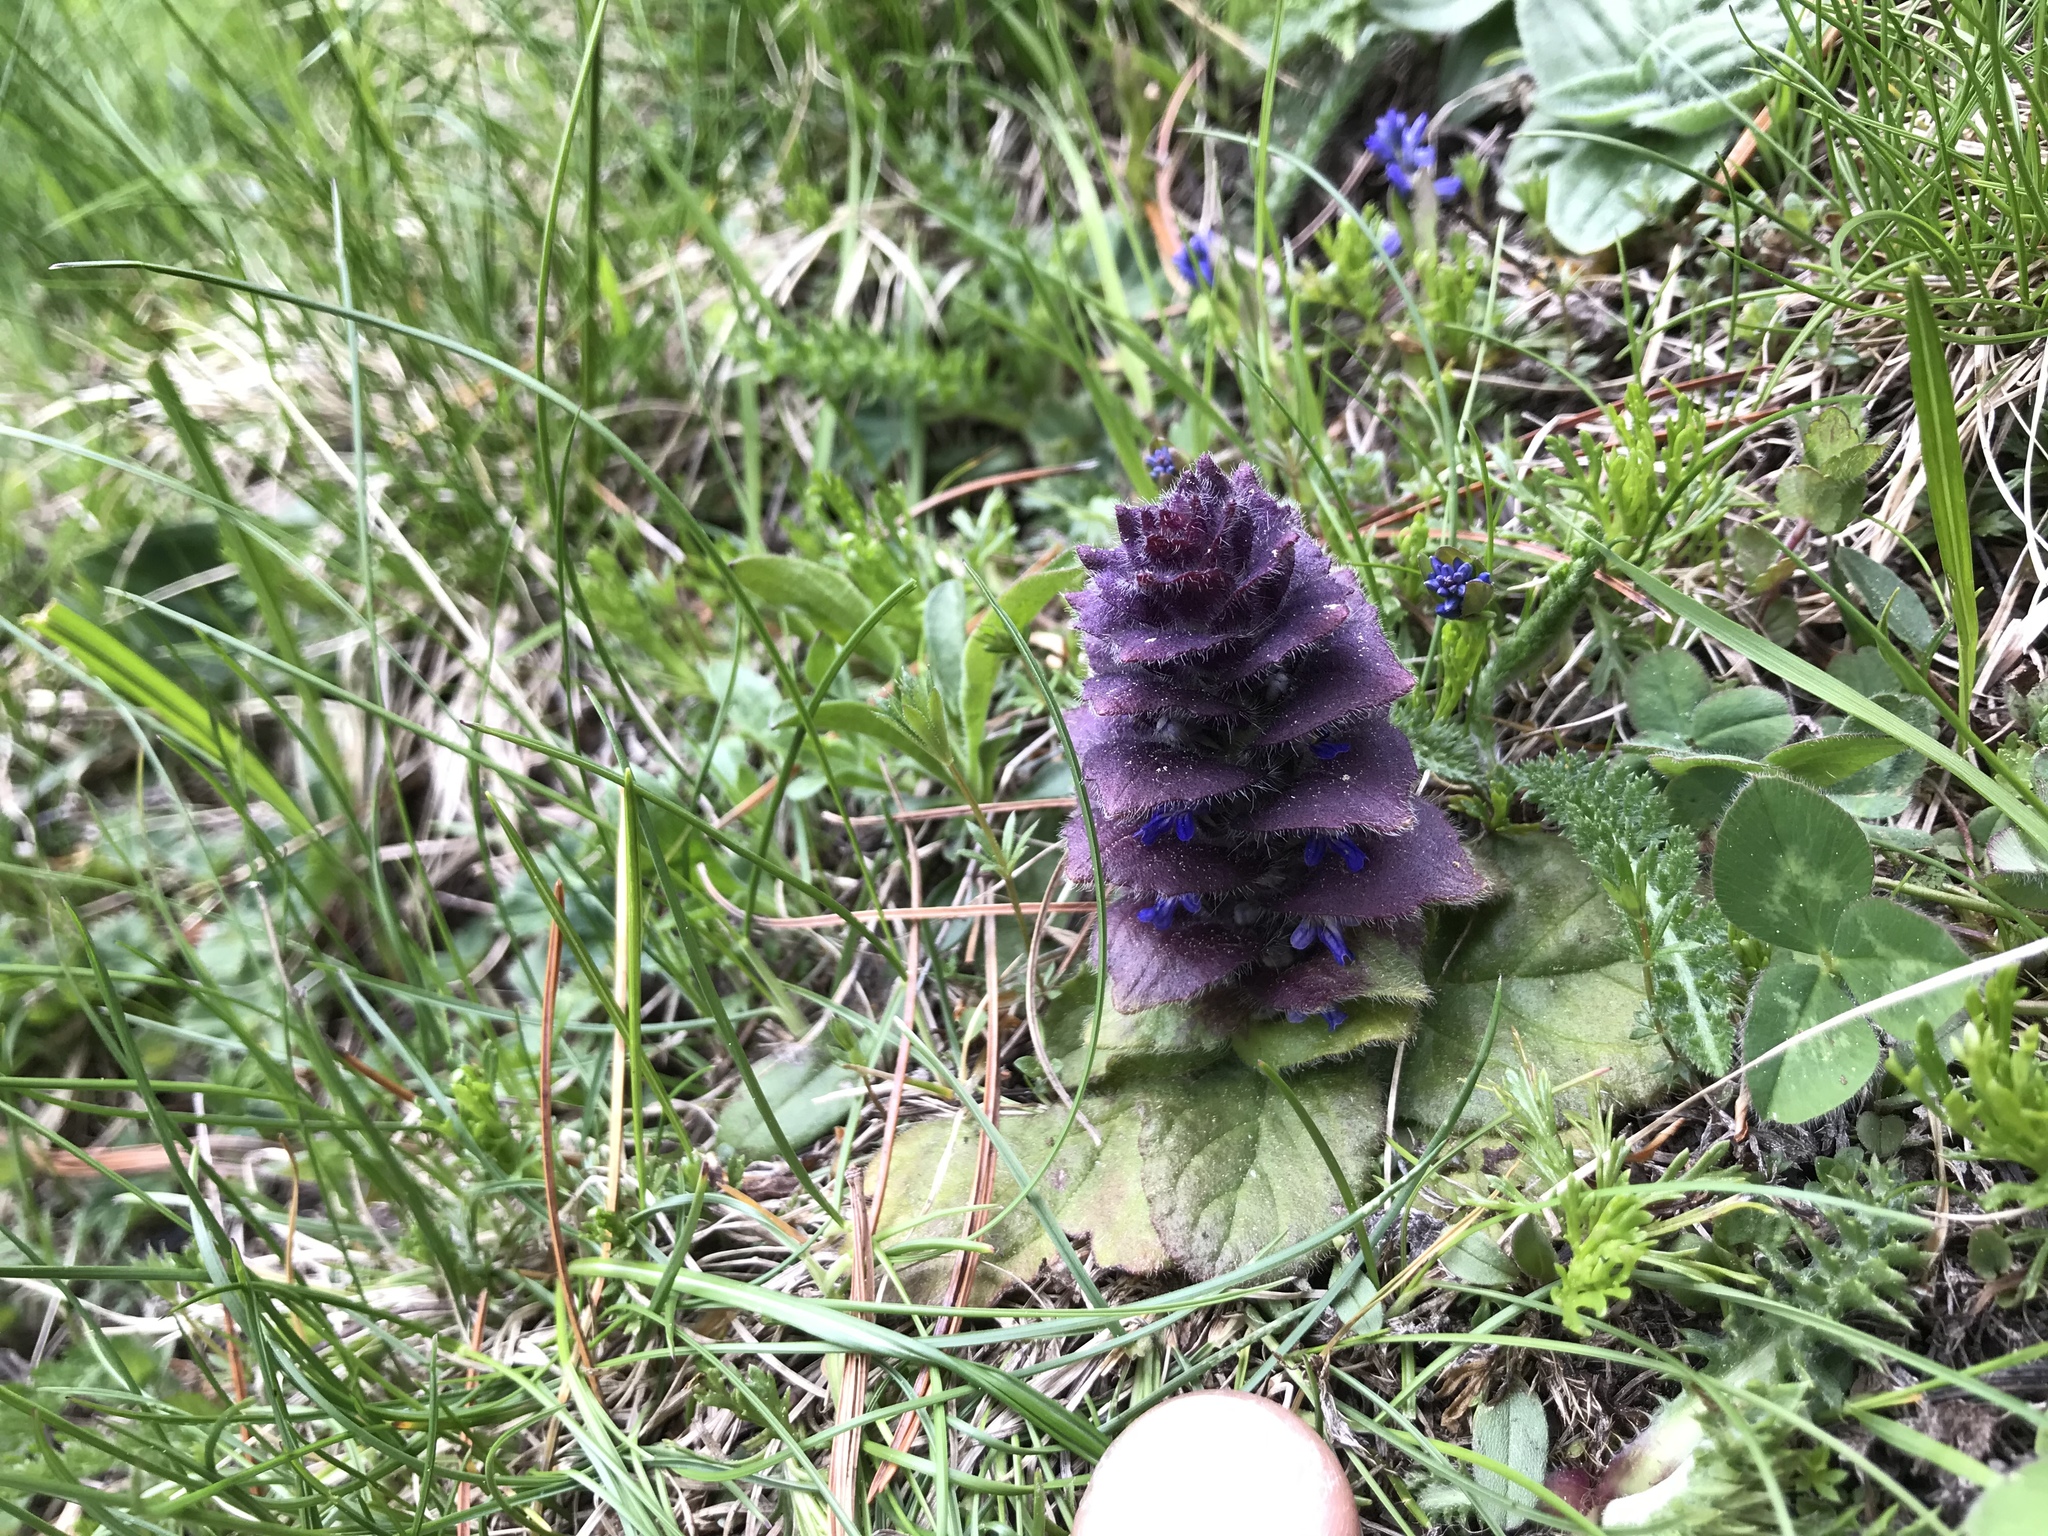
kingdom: Plantae
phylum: Tracheophyta
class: Magnoliopsida
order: Lamiales
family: Lamiaceae
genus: Ajuga
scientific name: Ajuga pyramidalis
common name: Pyramid bugle
